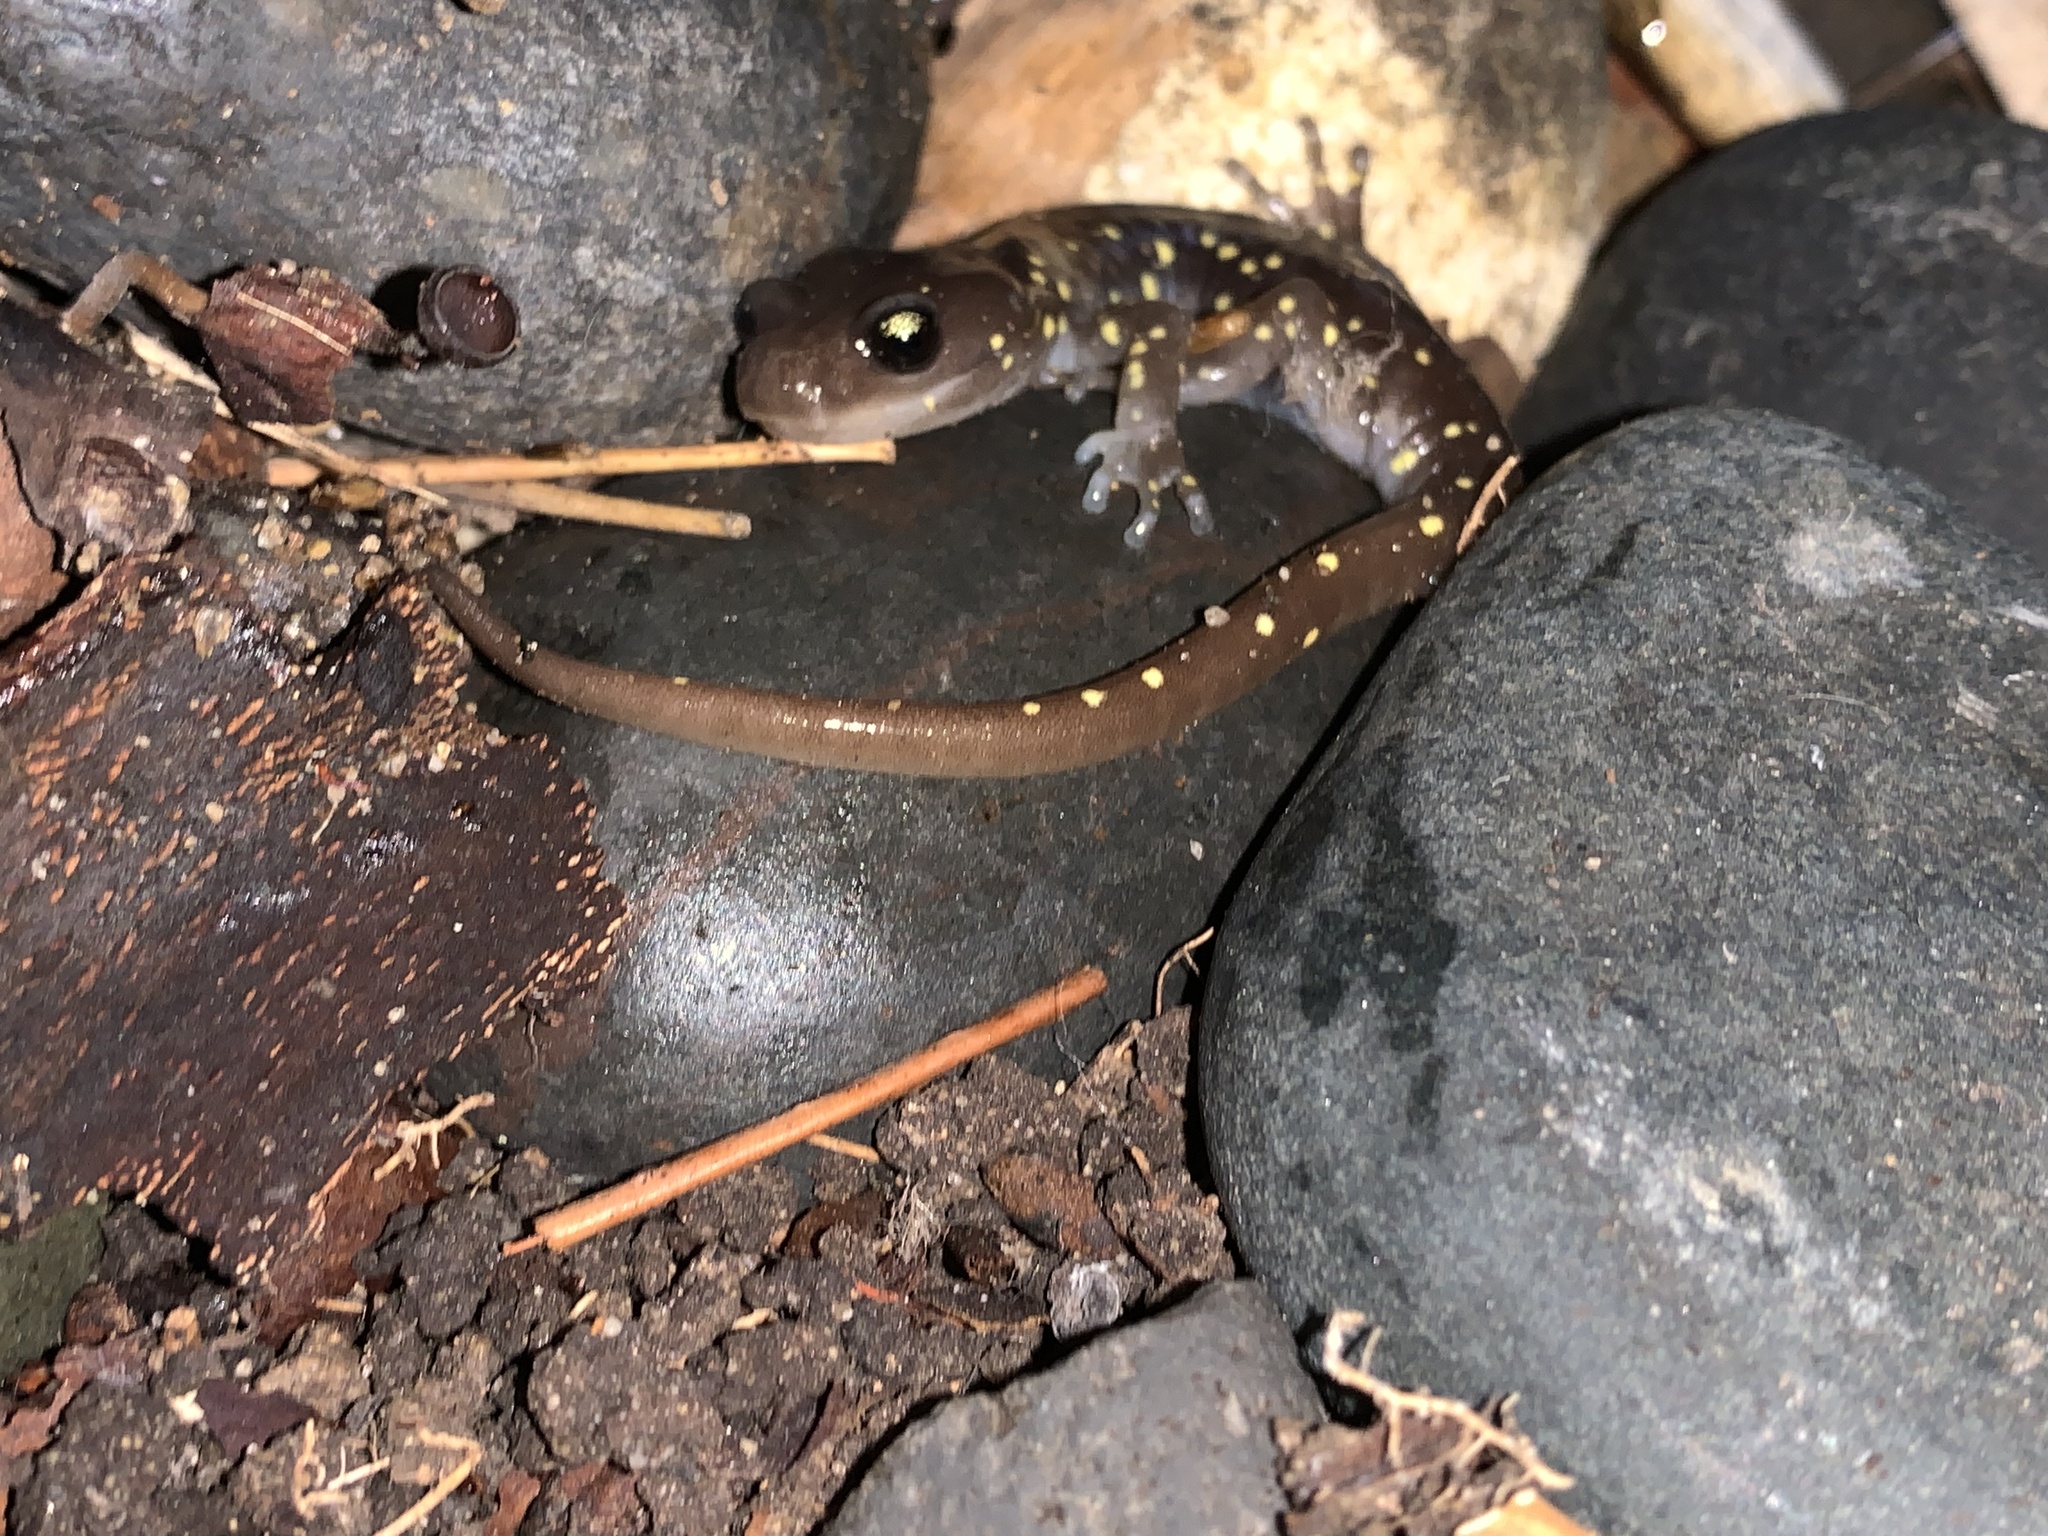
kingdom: Animalia
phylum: Chordata
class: Amphibia
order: Caudata
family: Plethodontidae
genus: Aneides
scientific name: Aneides lugubris
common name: Arboreal salamander
